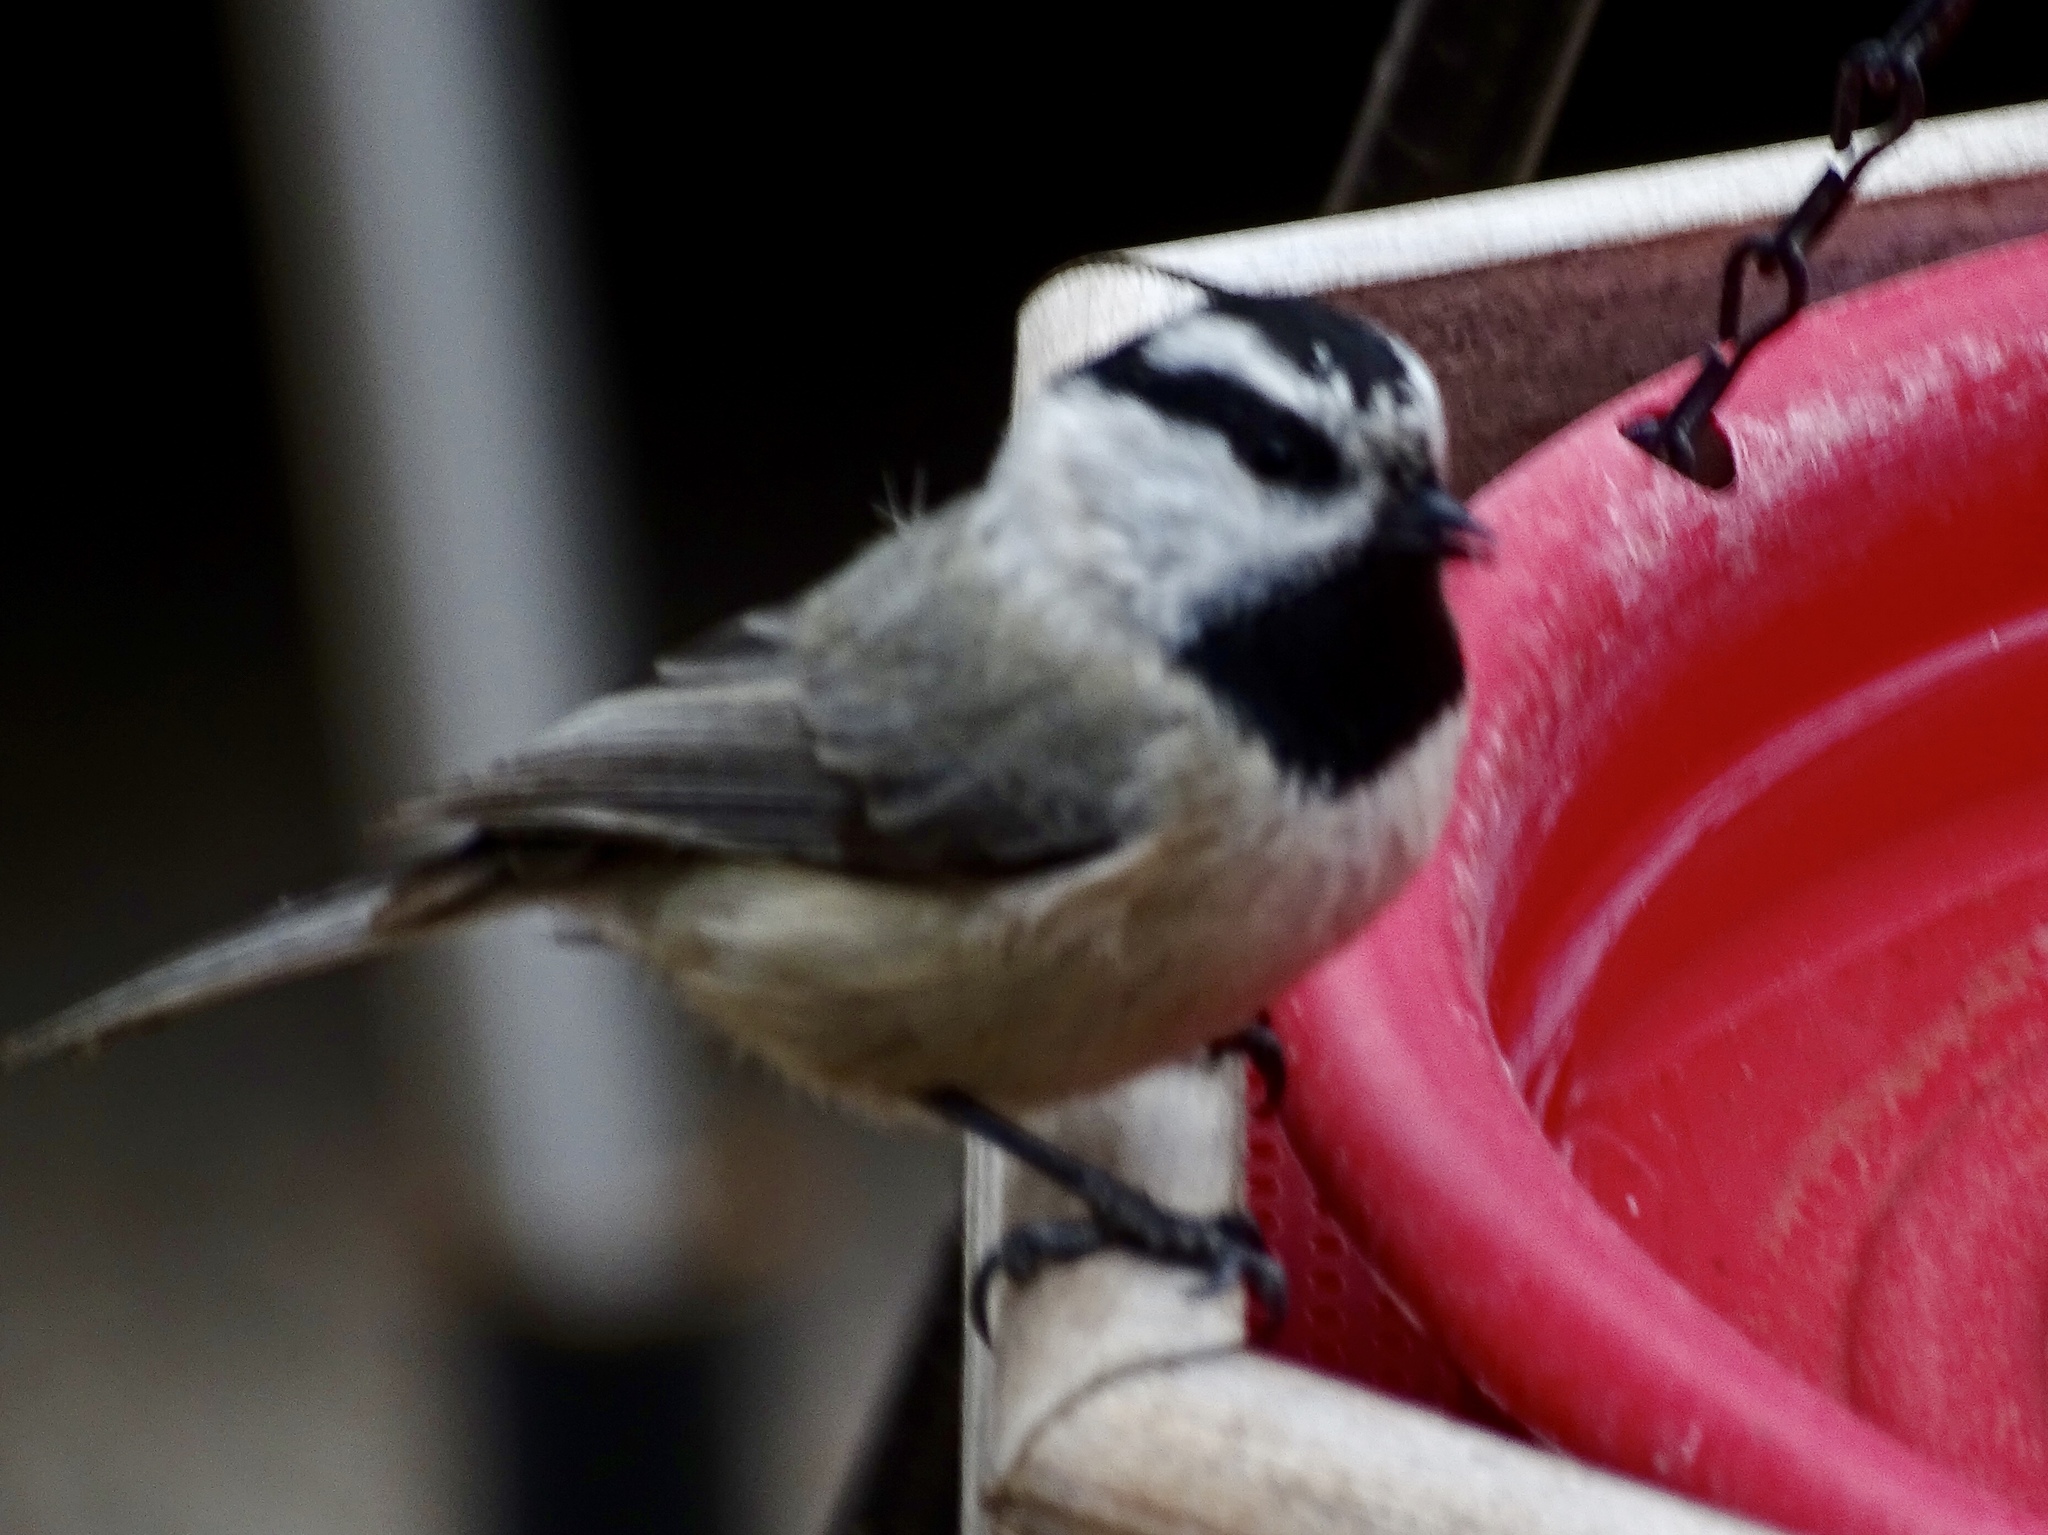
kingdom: Animalia
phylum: Chordata
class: Aves
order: Passeriformes
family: Paridae
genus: Poecile
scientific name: Poecile gambeli
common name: Mountain chickadee
